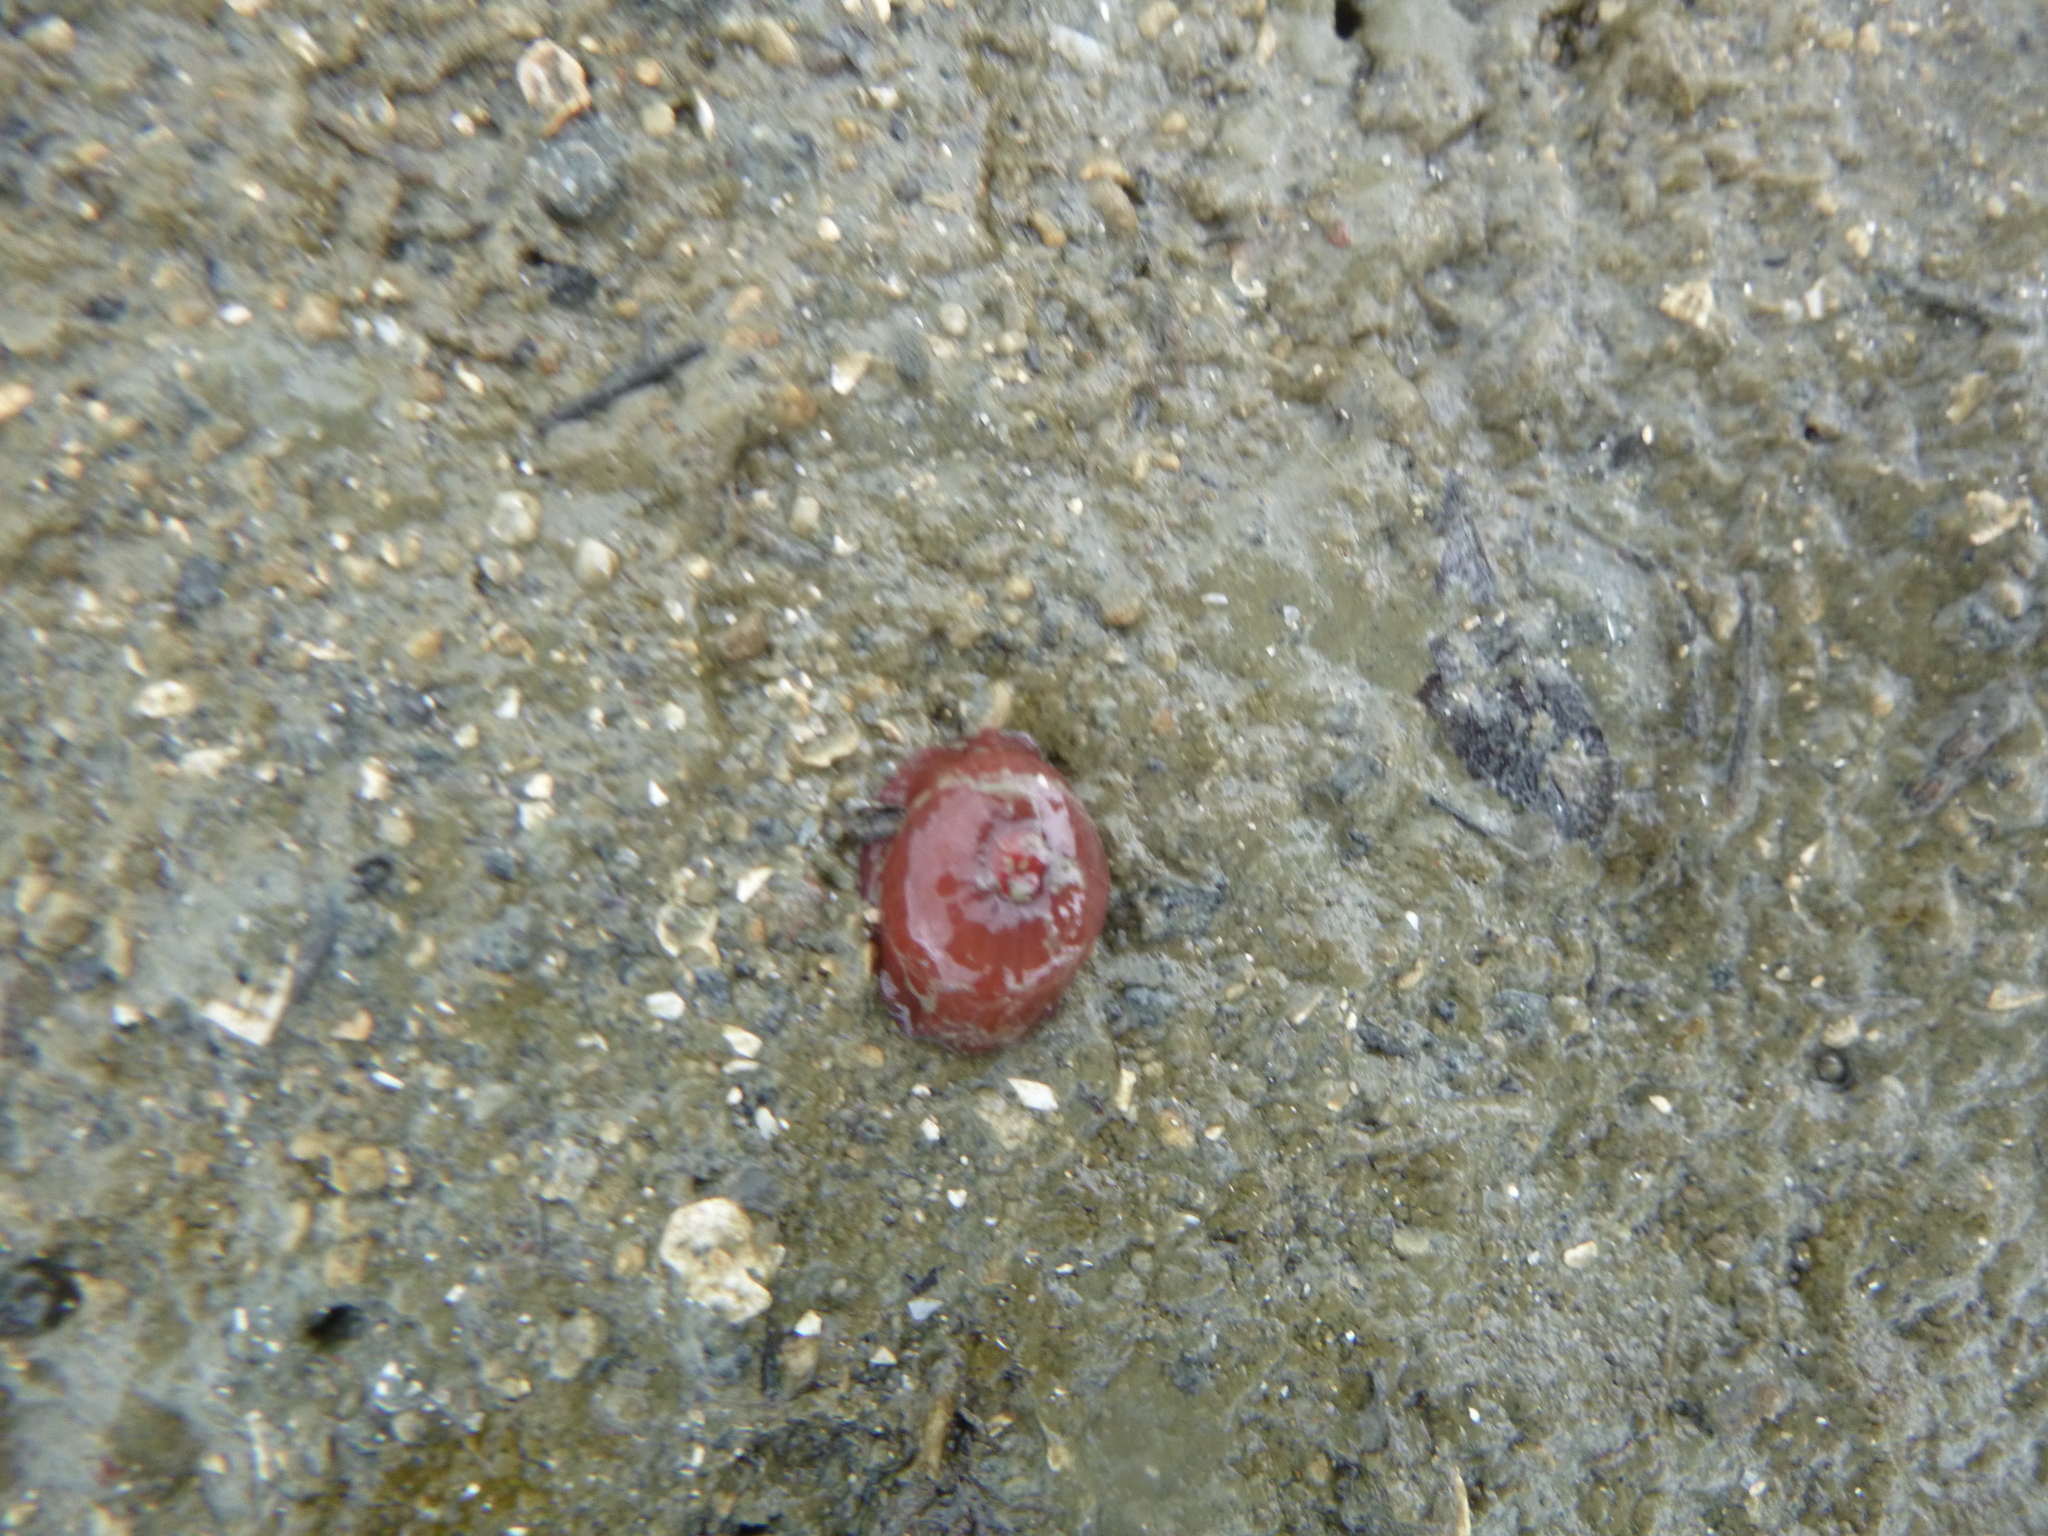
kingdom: Animalia
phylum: Cnidaria
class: Anthozoa
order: Actiniaria
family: Actiniidae
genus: Actinia
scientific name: Actinia tenebrosa
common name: Waratah anemone
